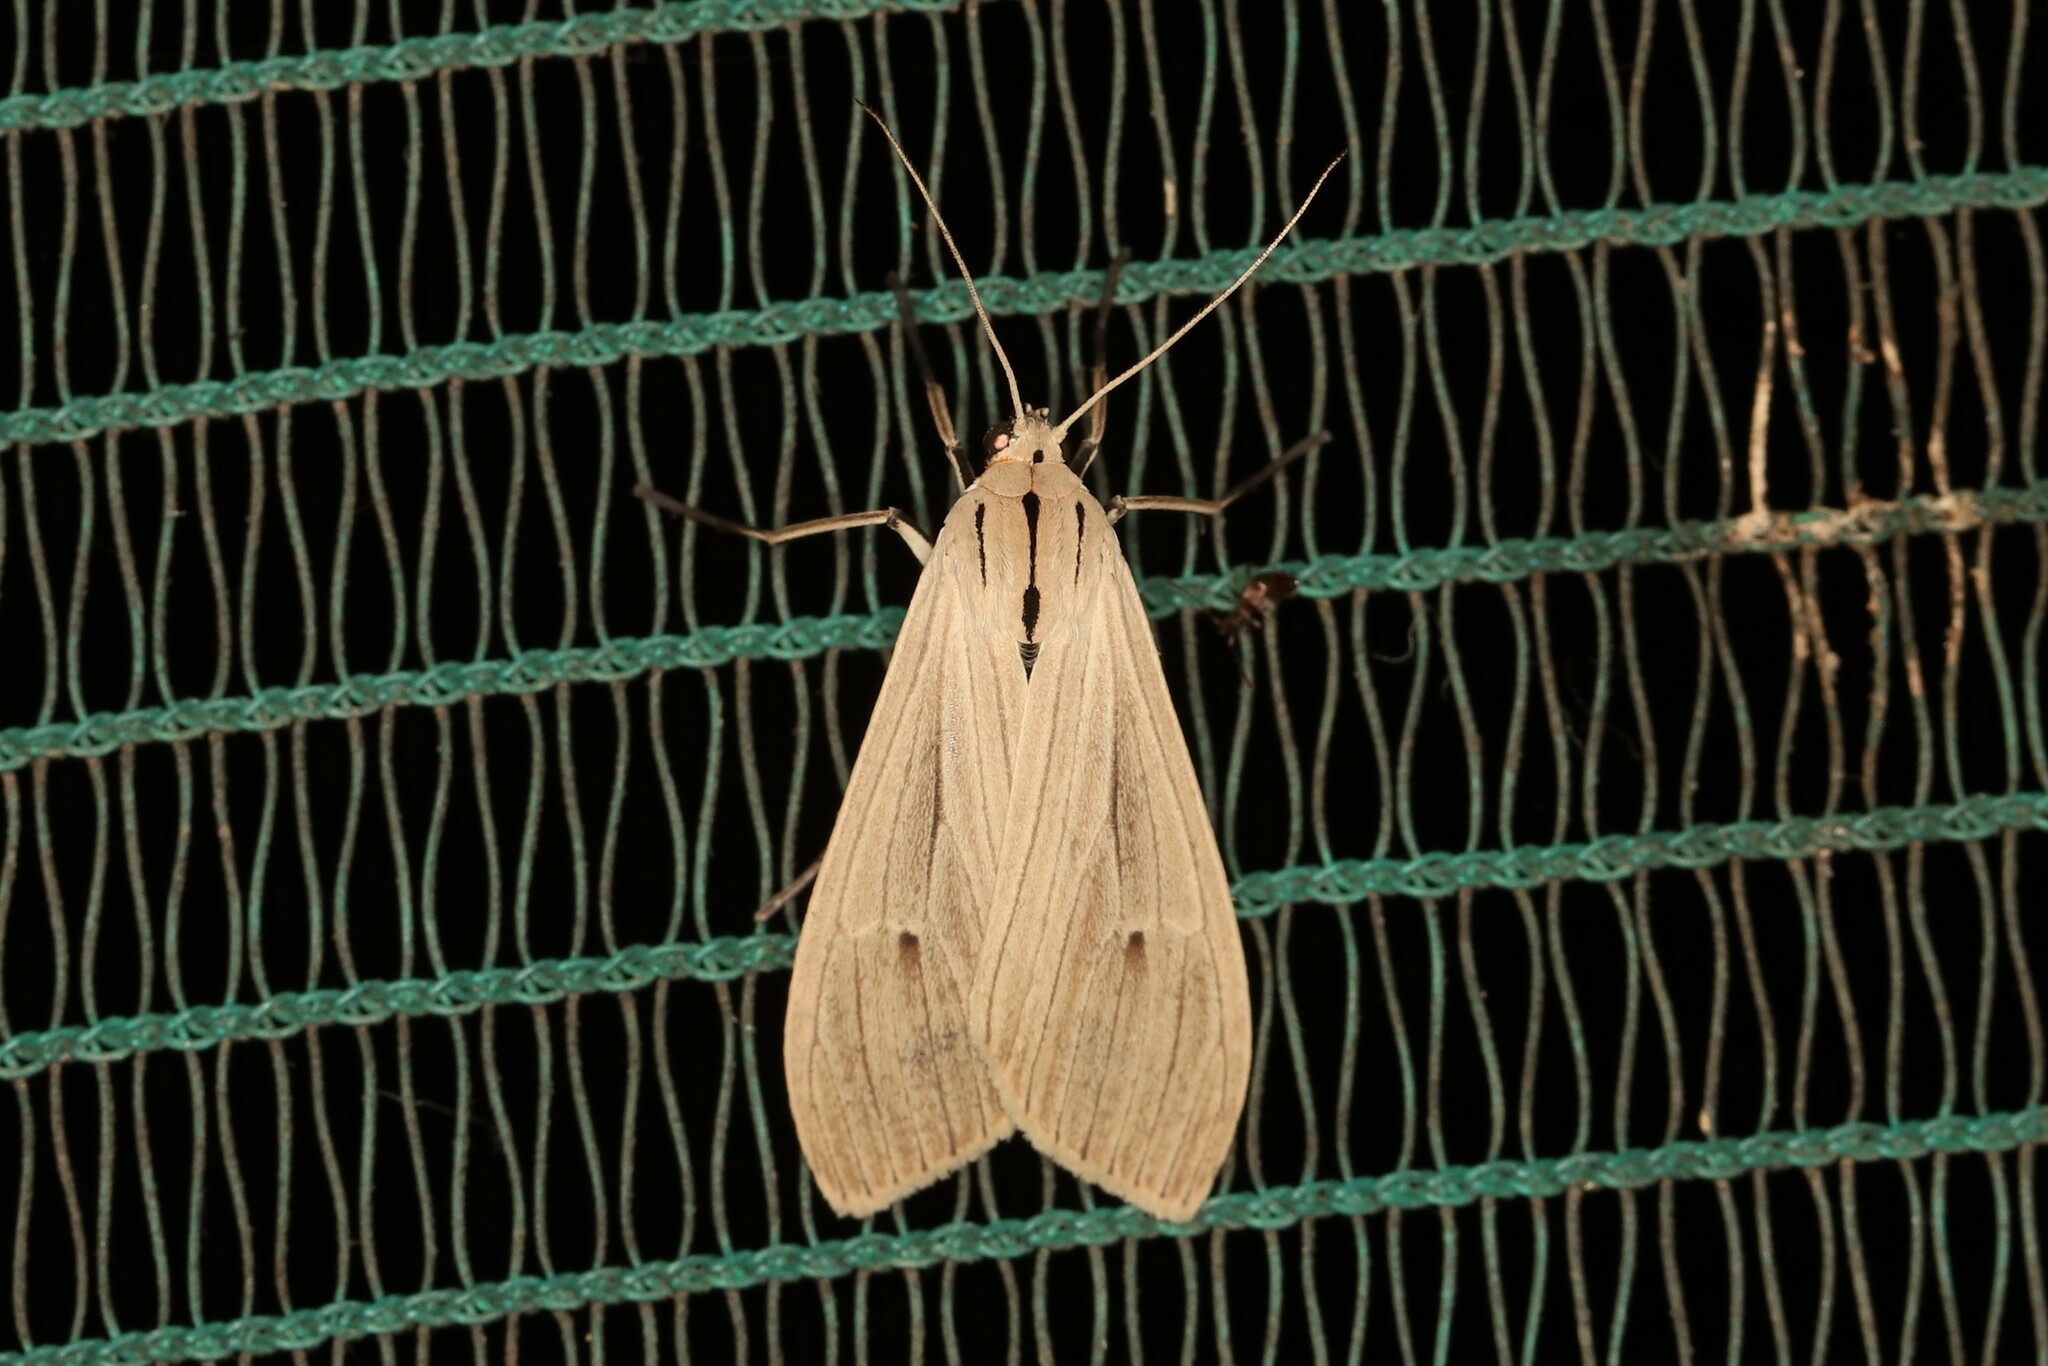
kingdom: Animalia
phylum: Arthropoda
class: Insecta
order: Lepidoptera
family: Erebidae
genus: Arctagyrta
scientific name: Arctagyrta Agaraea semivitrea
